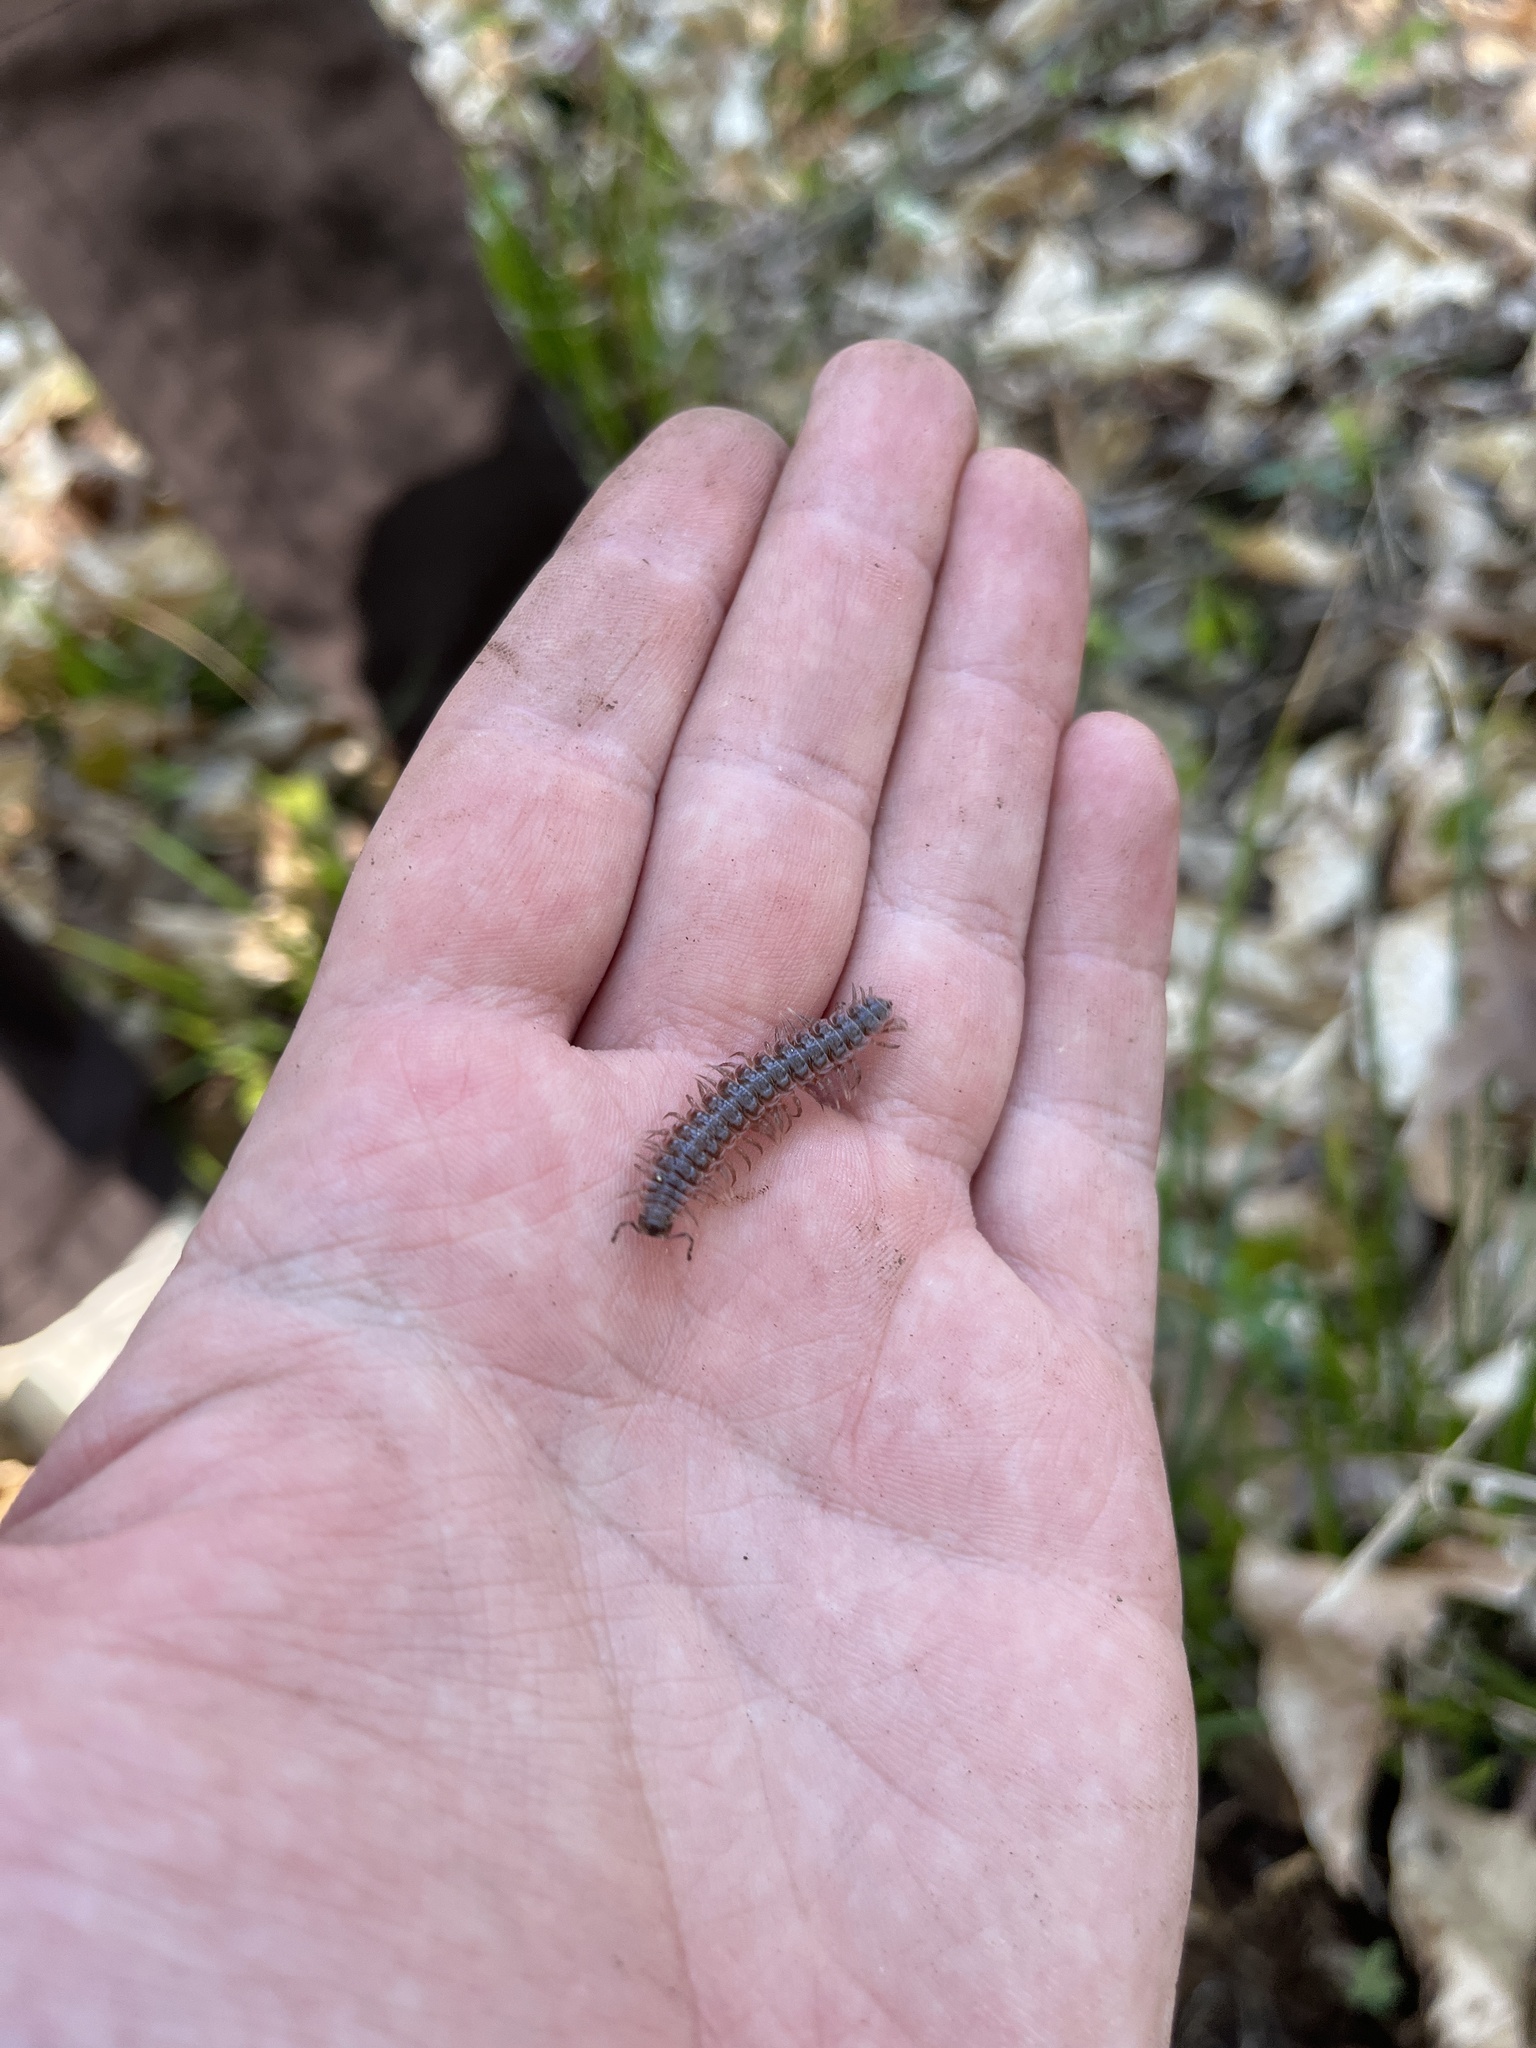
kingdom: Animalia
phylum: Arthropoda
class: Diplopoda
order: Polydesmida
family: Polydesmidae
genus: Pseudopolydesmus
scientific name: Pseudopolydesmus serratus
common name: Common pink flat-back millipede
